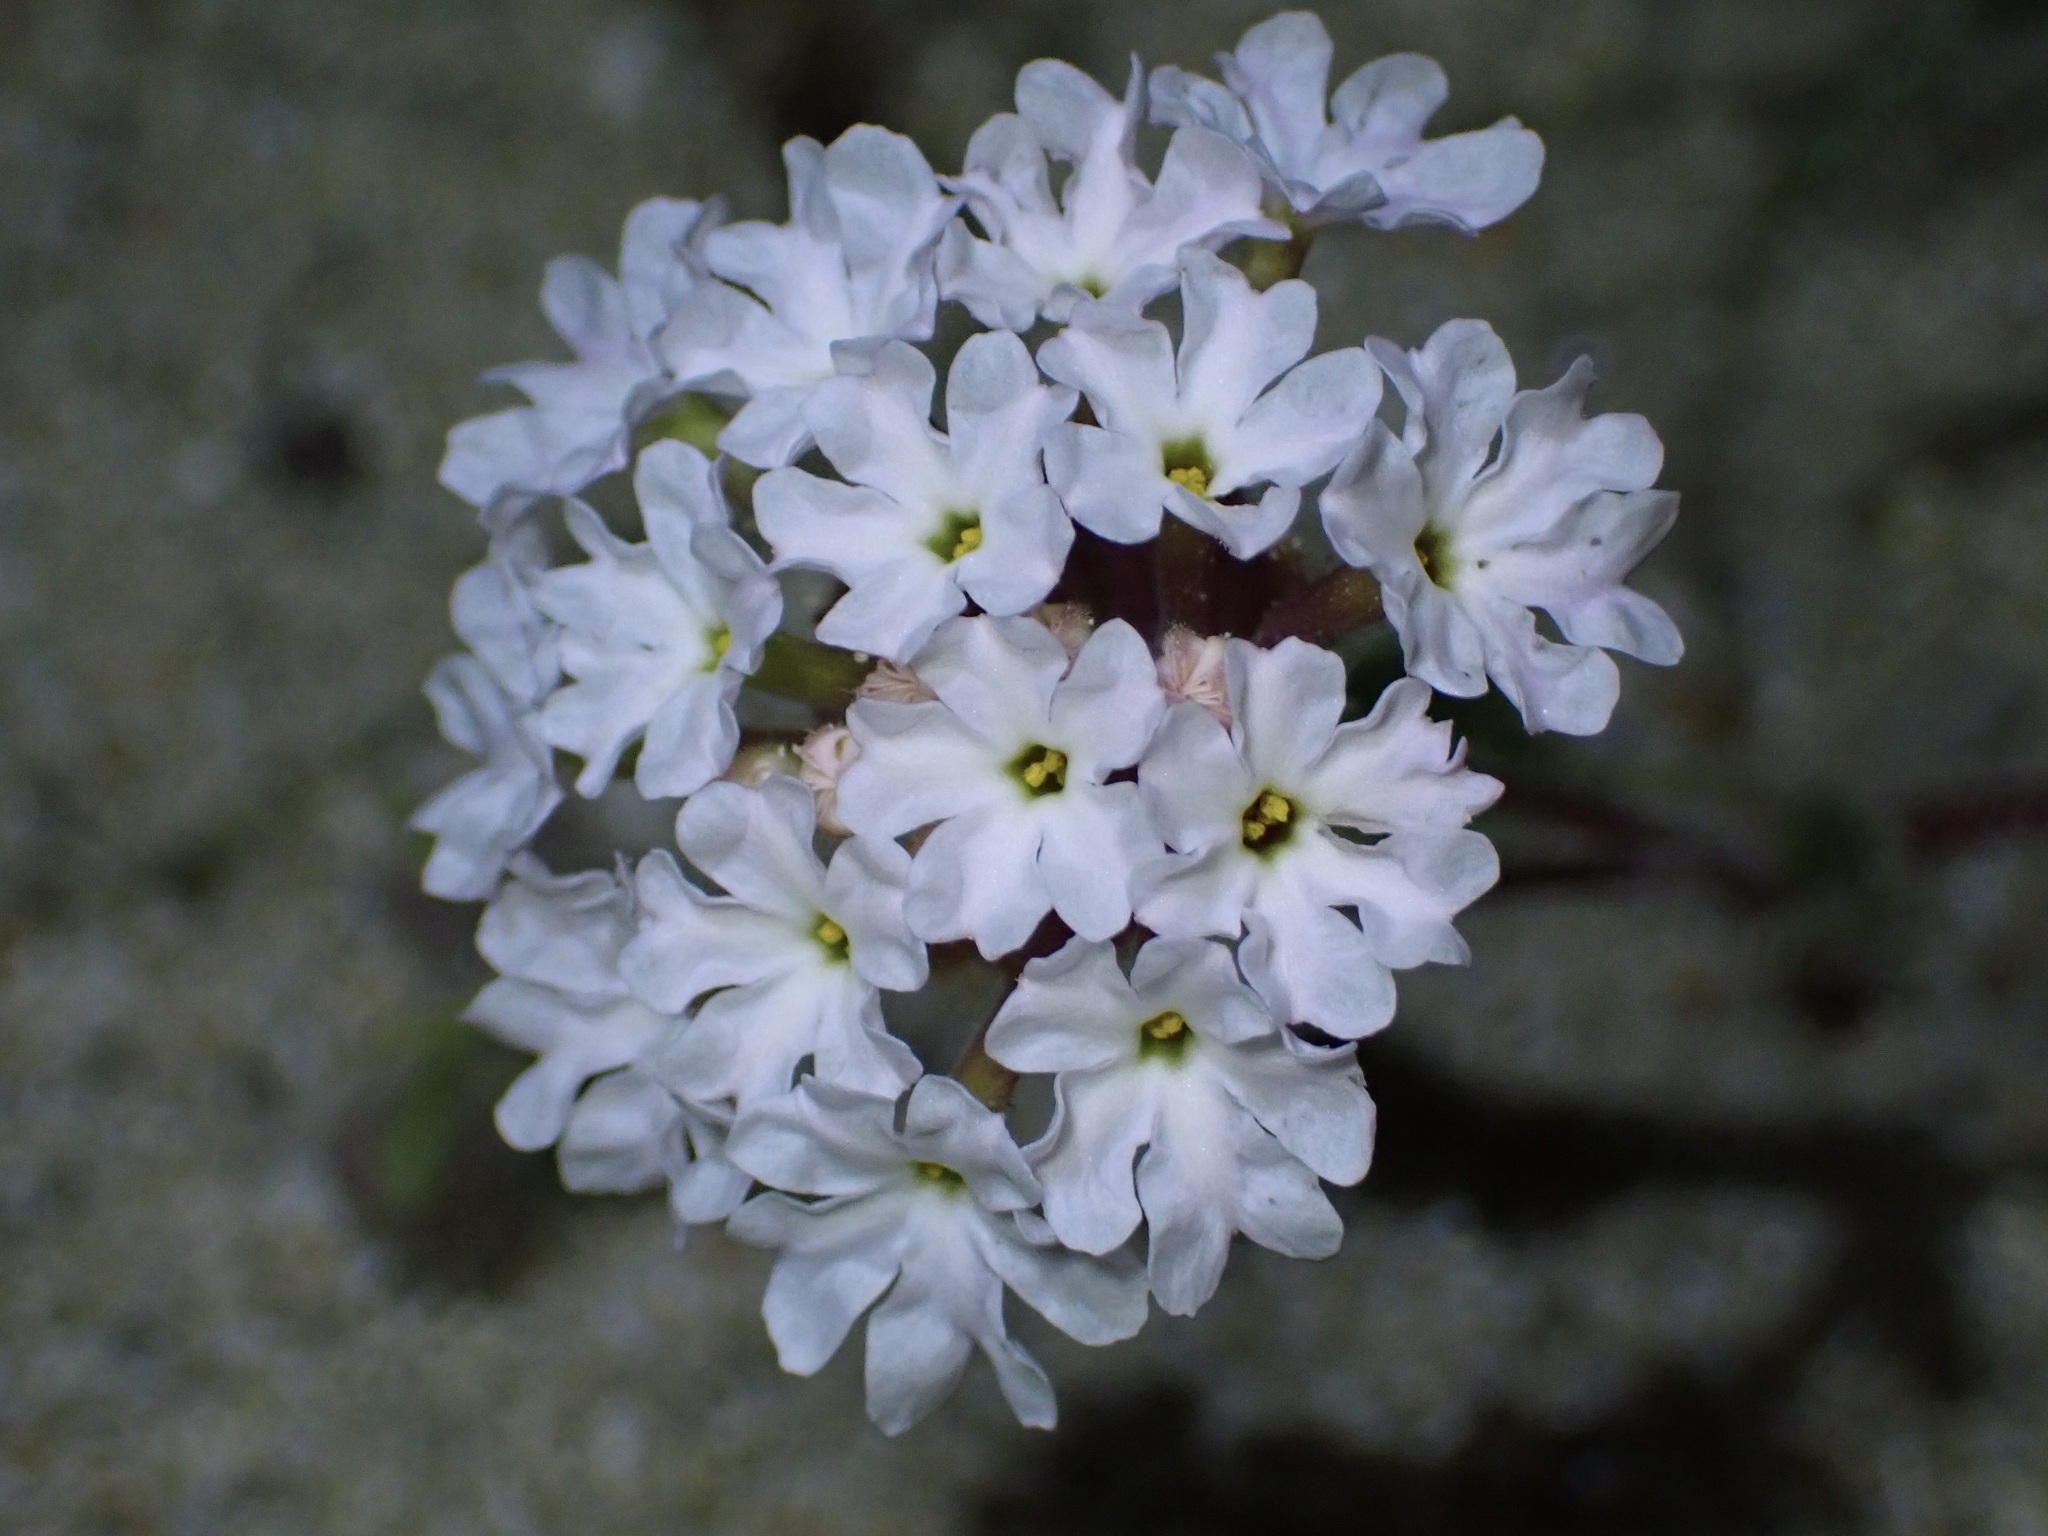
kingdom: Plantae
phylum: Tracheophyta
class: Magnoliopsida
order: Caryophyllales
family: Nyctaginaceae
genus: Abronia
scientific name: Abronia pogonantha
